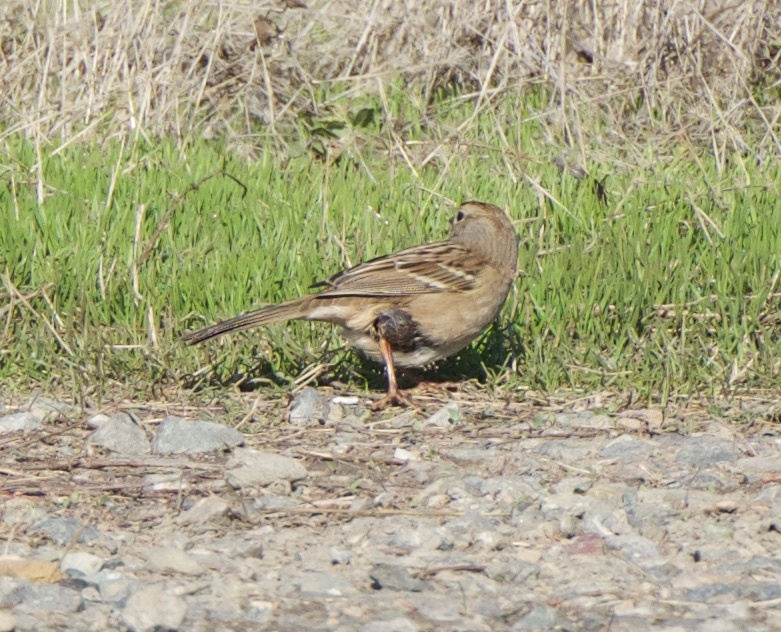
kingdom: Animalia
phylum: Chordata
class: Aves
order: Passeriformes
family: Passerellidae
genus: Zonotrichia
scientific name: Zonotrichia leucophrys
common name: White-crowned sparrow
